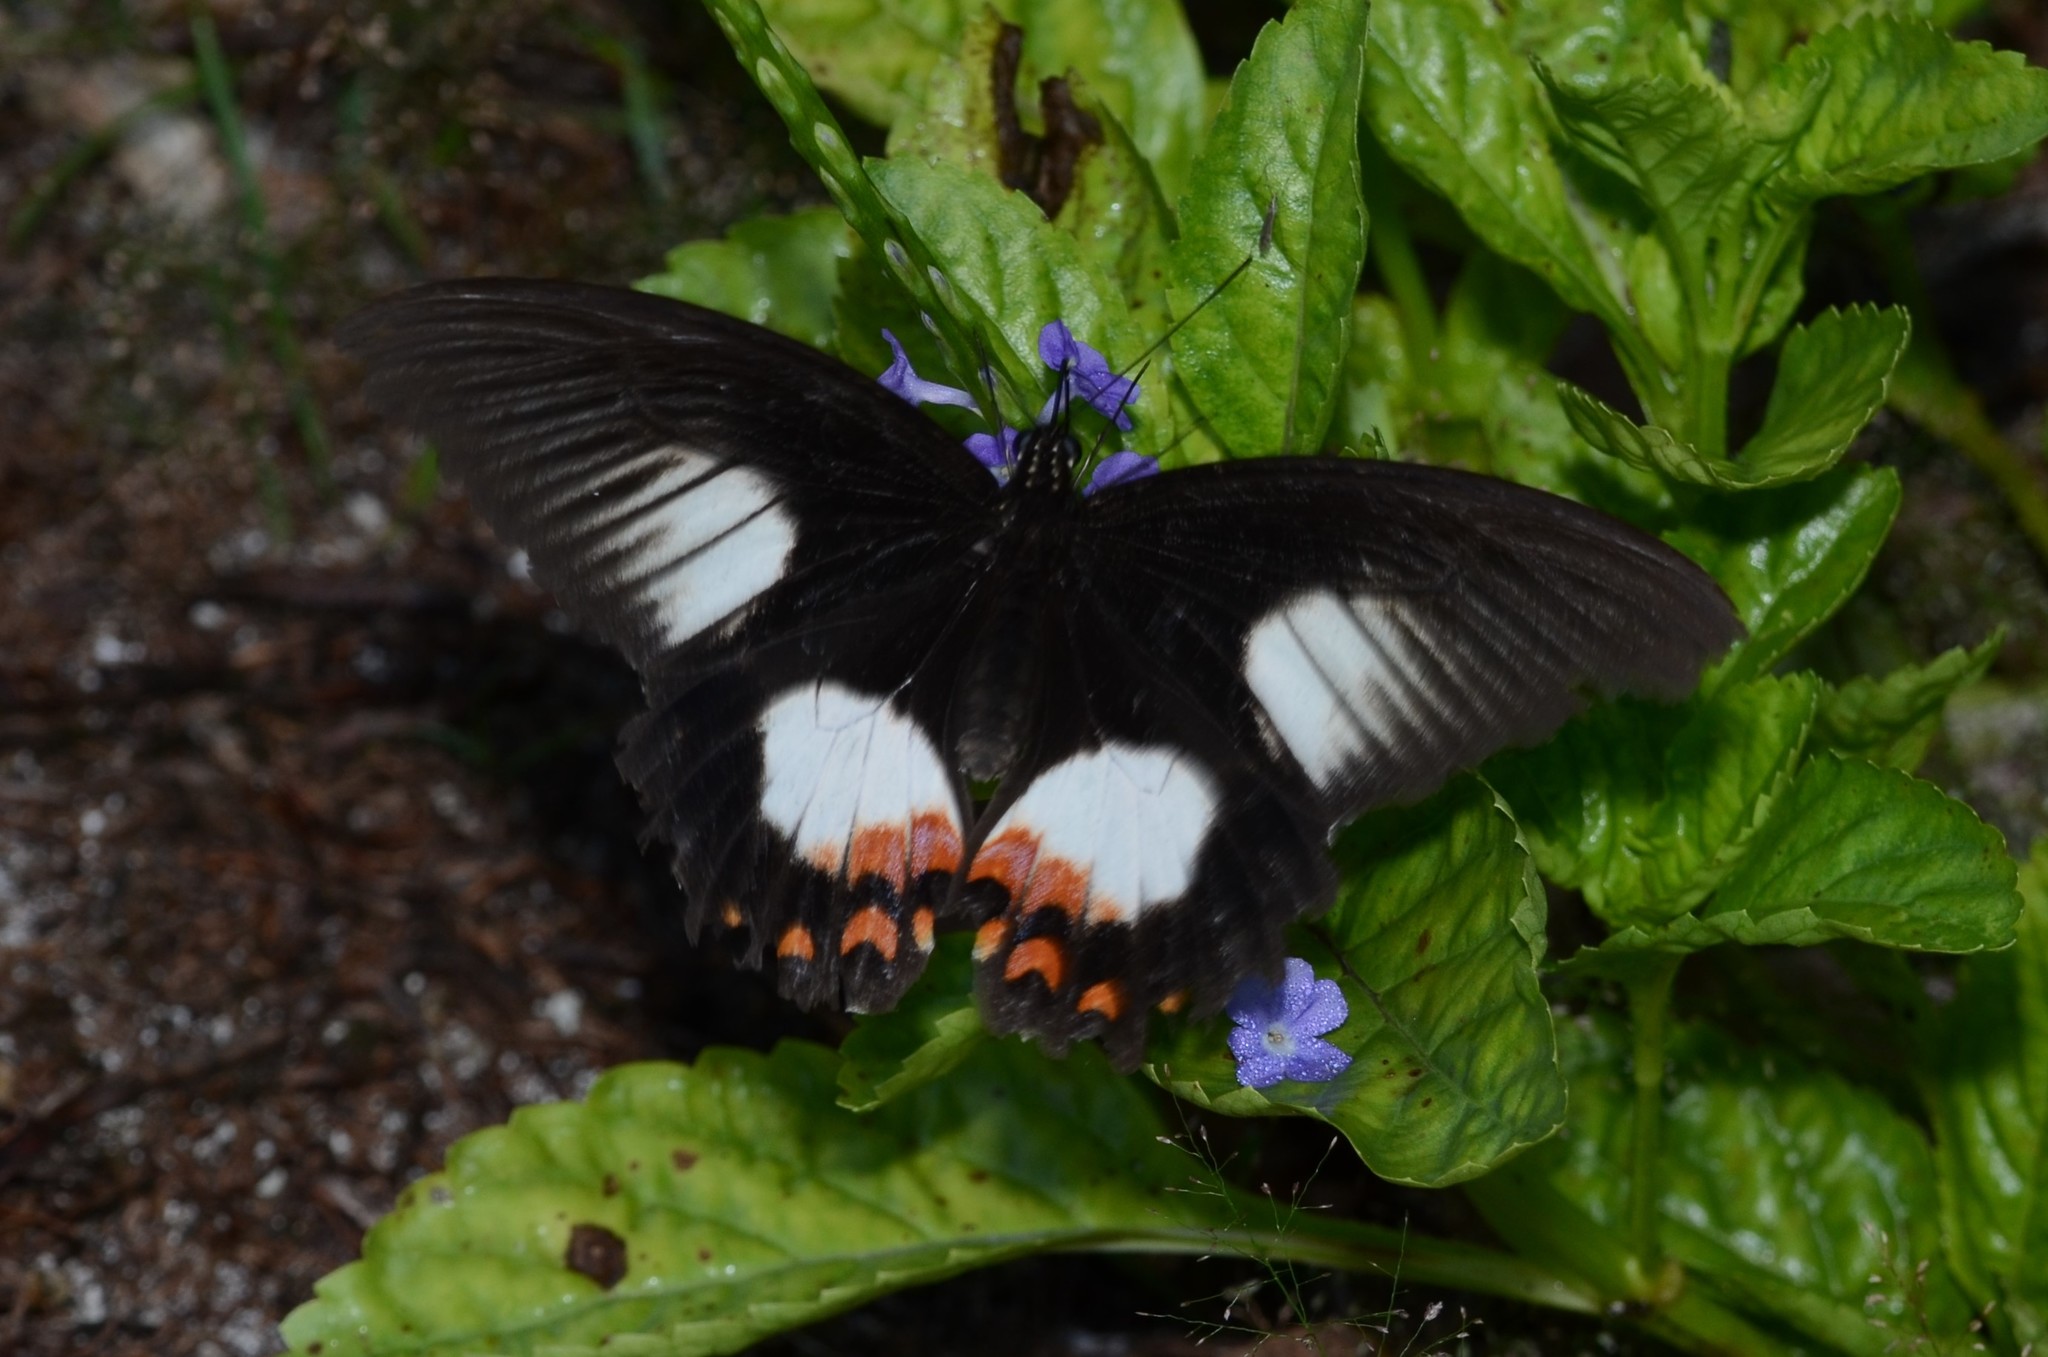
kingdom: Animalia
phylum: Arthropoda
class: Insecta
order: Lepidoptera
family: Papilionidae
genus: Papilio
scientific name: Papilio ambrax
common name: Ambrax butterfly
